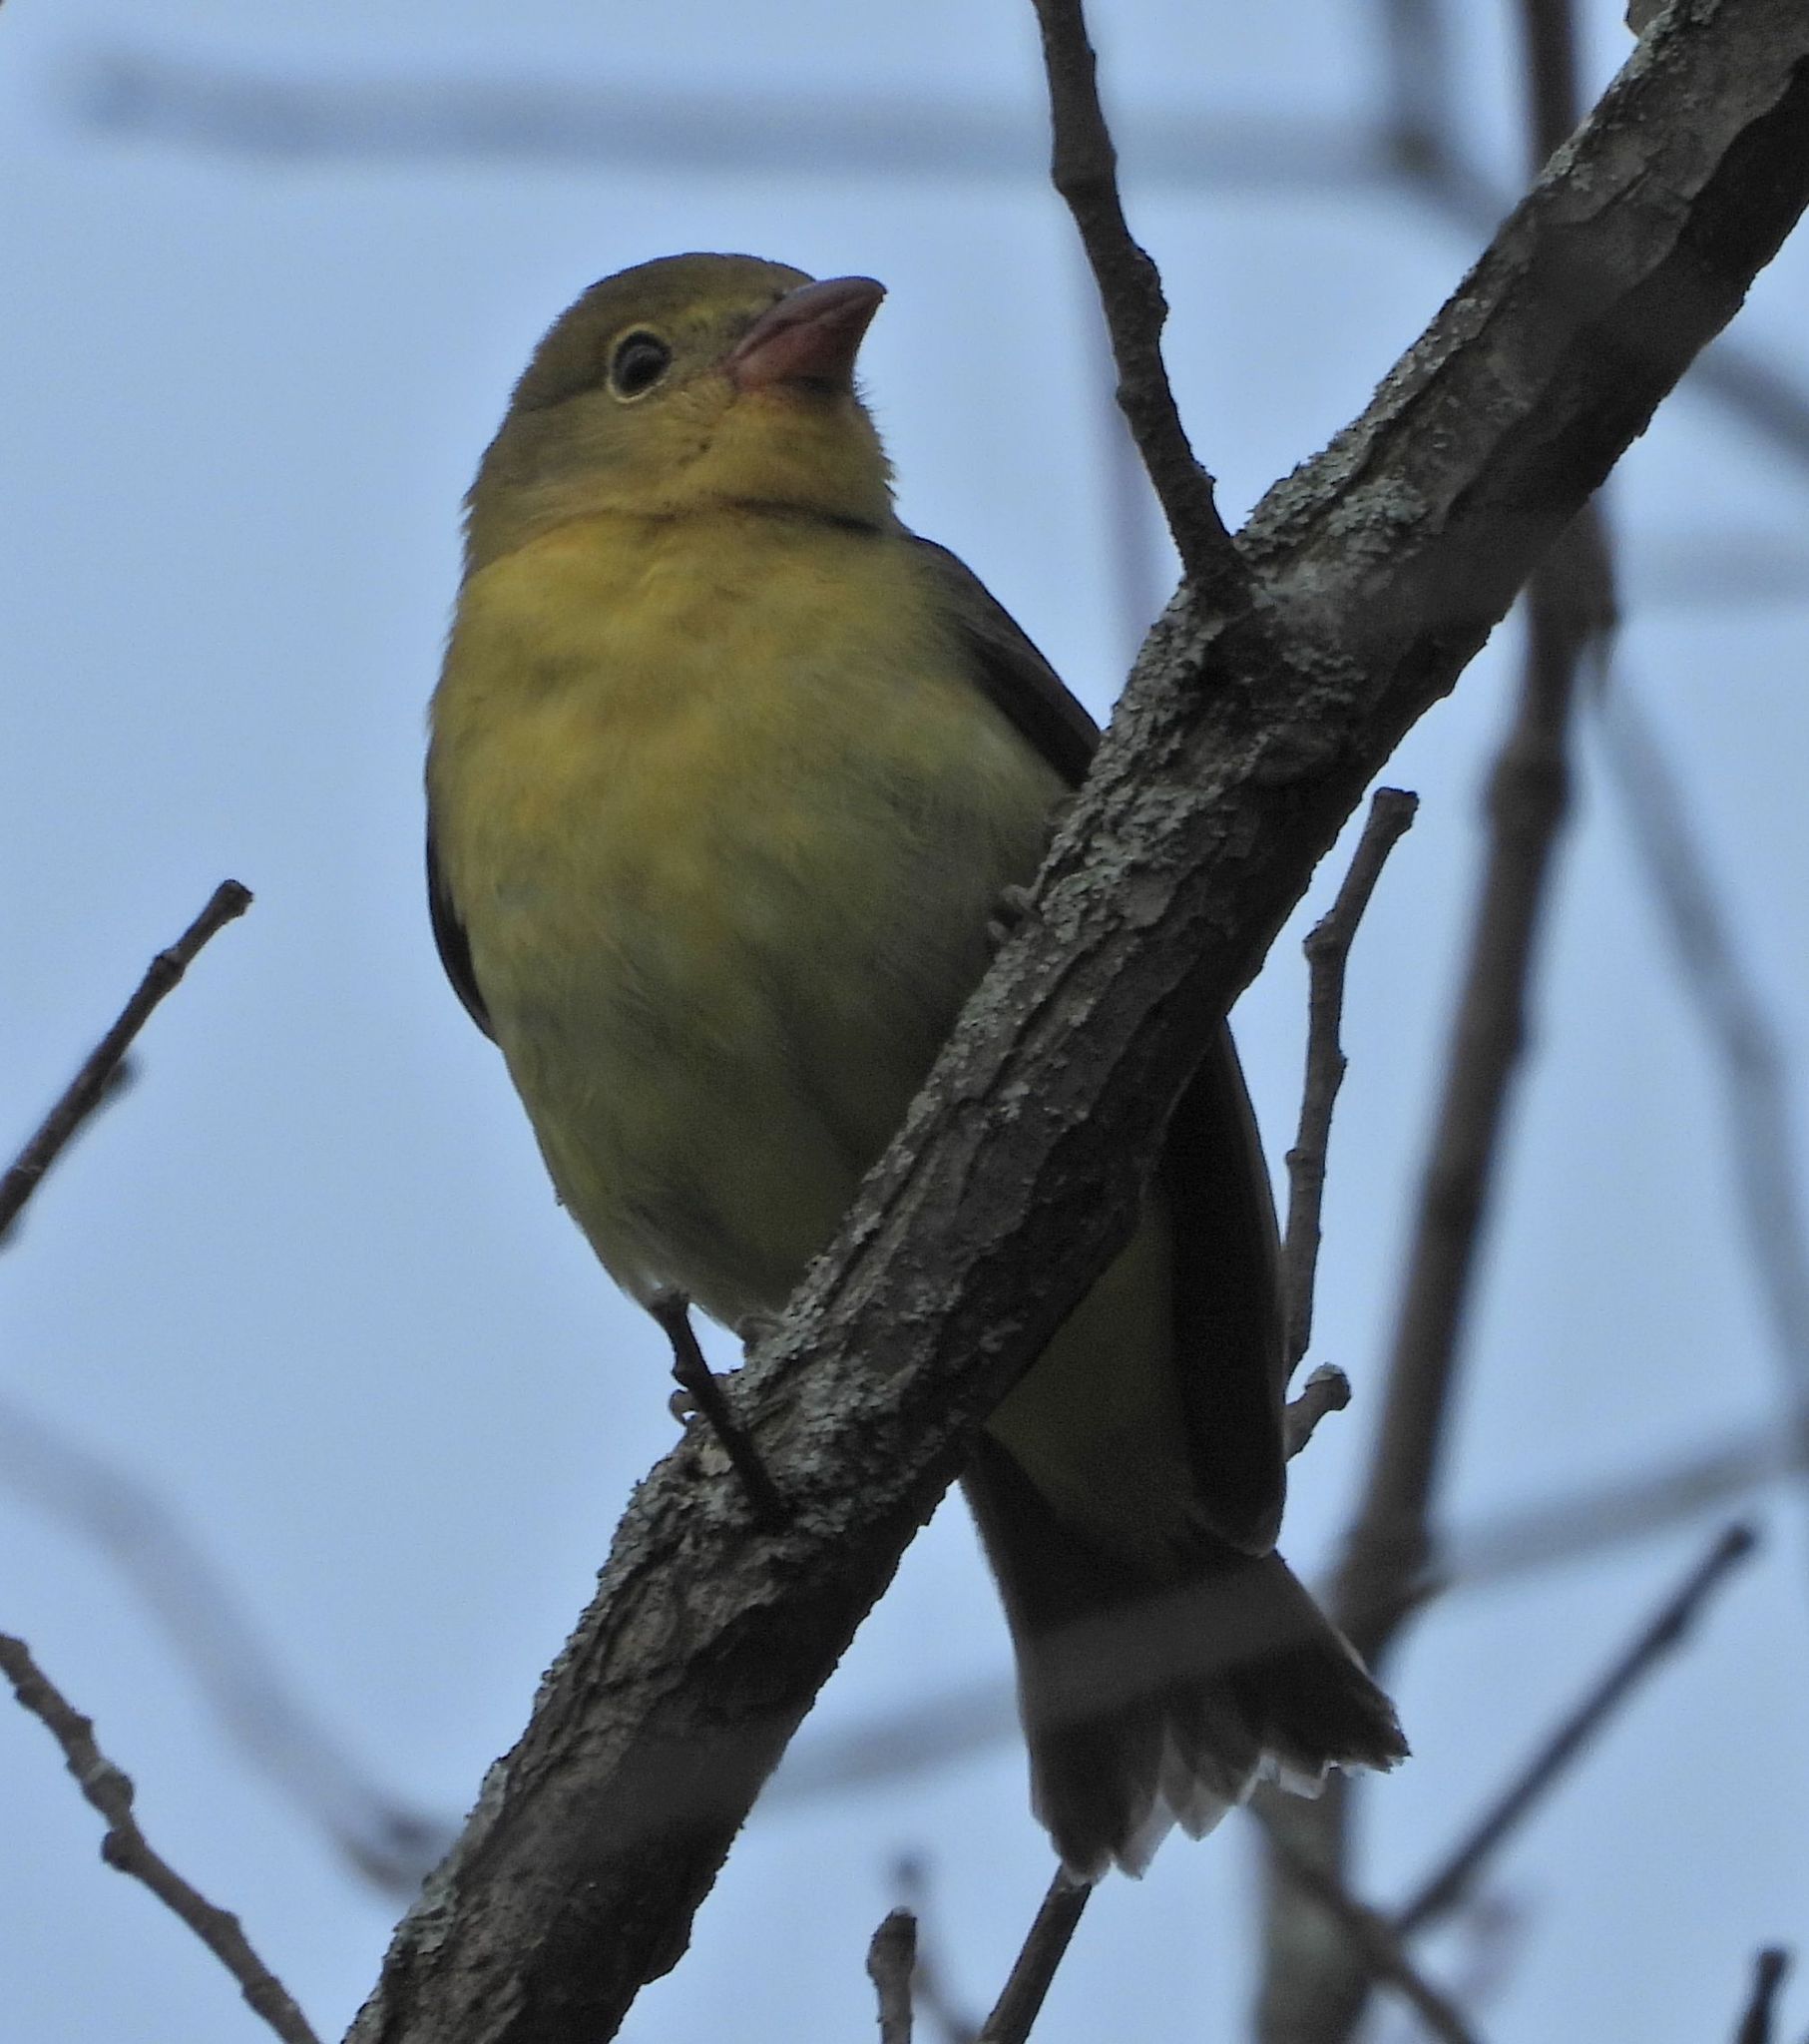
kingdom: Animalia
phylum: Chordata
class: Aves
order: Passeriformes
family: Cardinalidae
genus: Piranga
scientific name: Piranga olivacea
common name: Scarlet tanager
